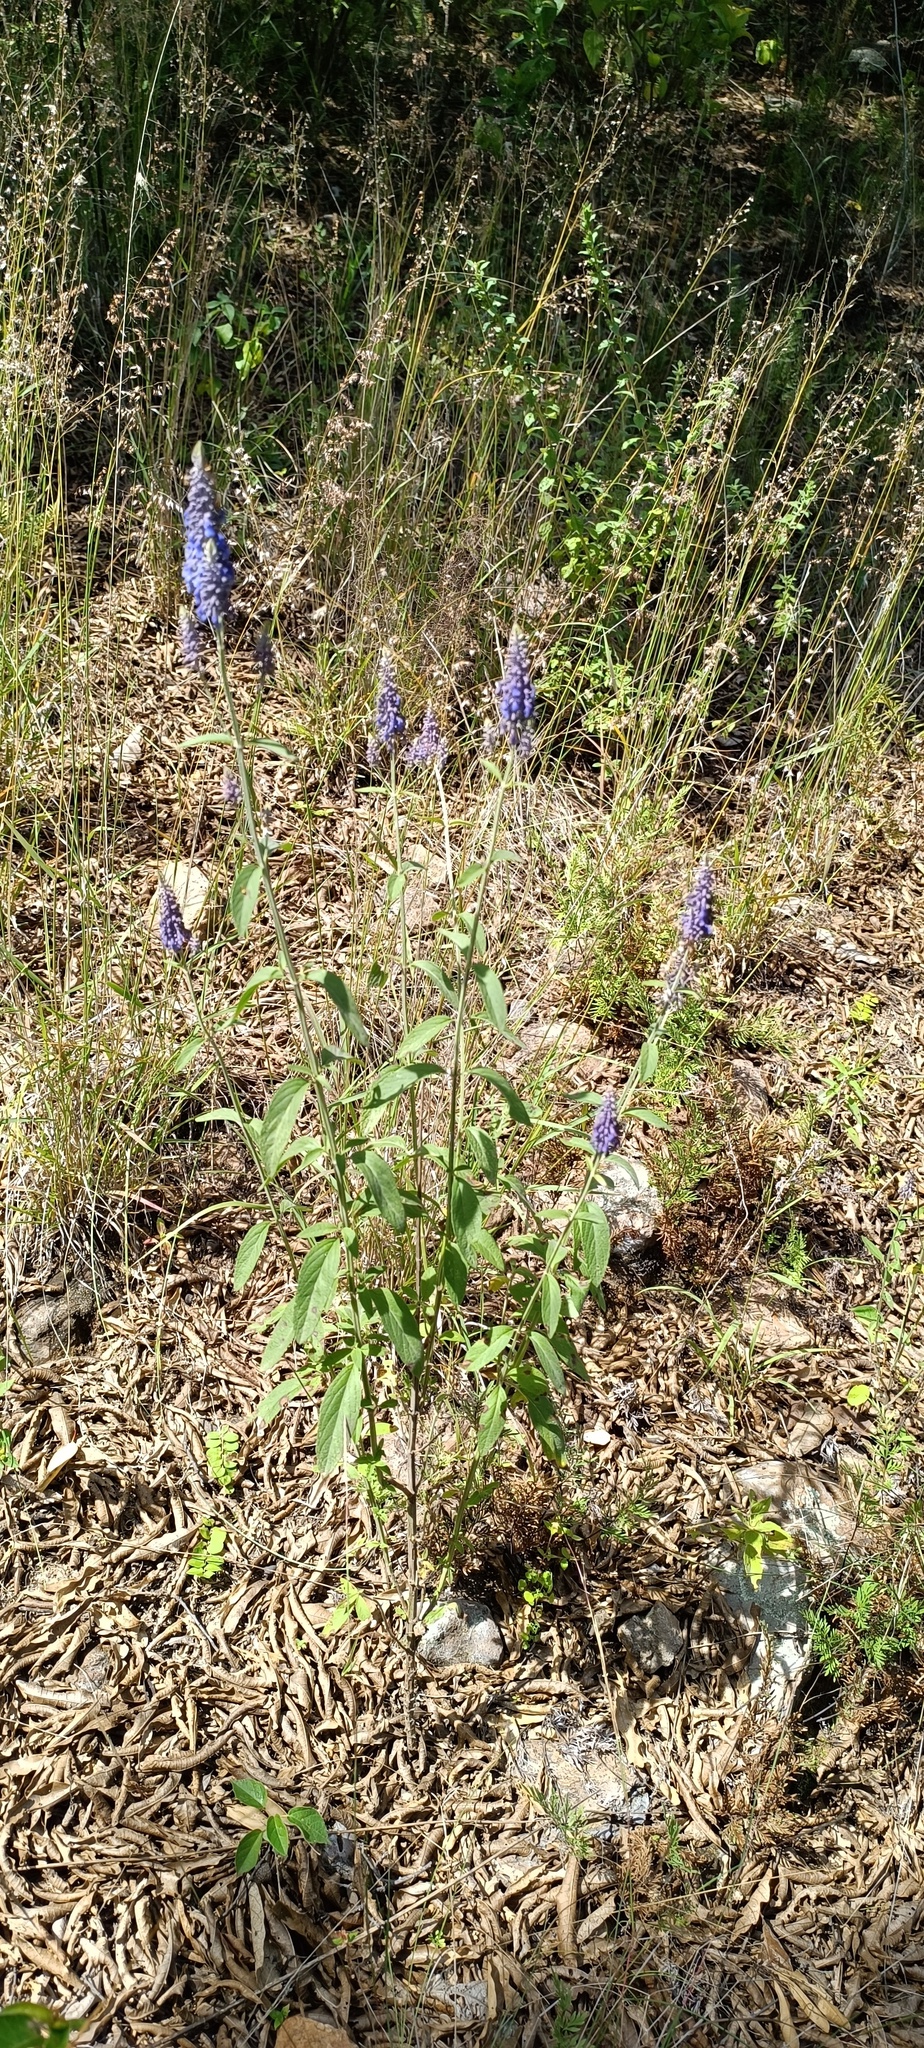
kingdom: Plantae
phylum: Tracheophyta
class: Magnoliopsida
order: Lamiales
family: Lamiaceae
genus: Salvia
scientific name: Salvia lavanduloides
